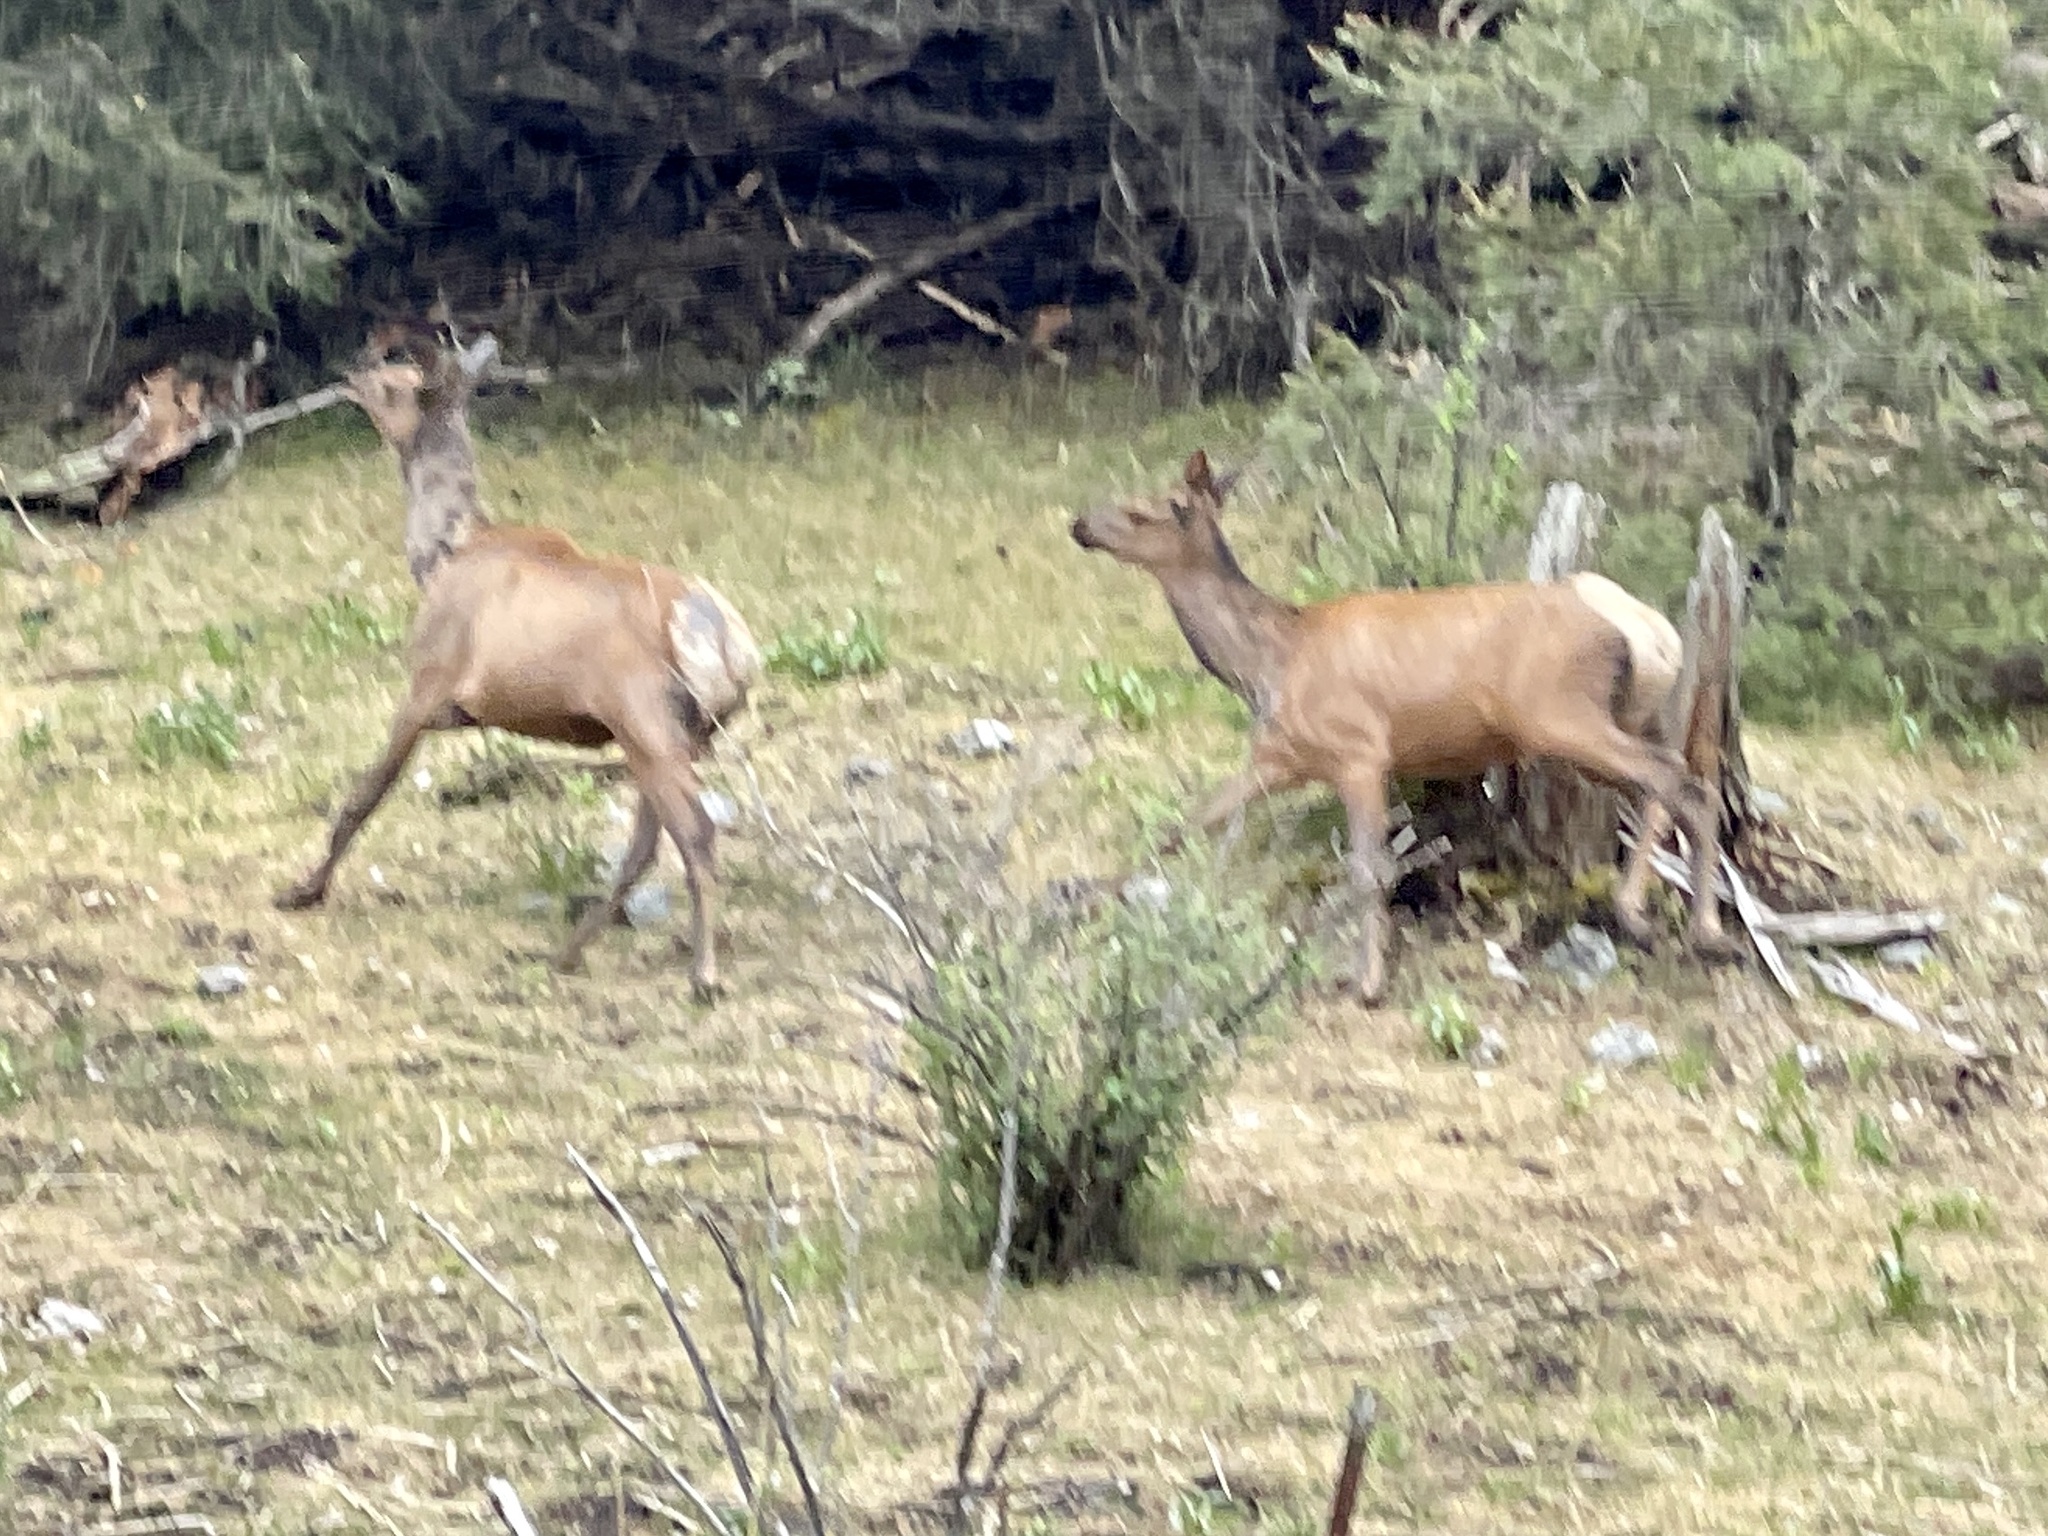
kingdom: Animalia
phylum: Chordata
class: Mammalia
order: Artiodactyla
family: Cervidae
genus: Cervus
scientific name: Cervus elaphus
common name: Red deer
